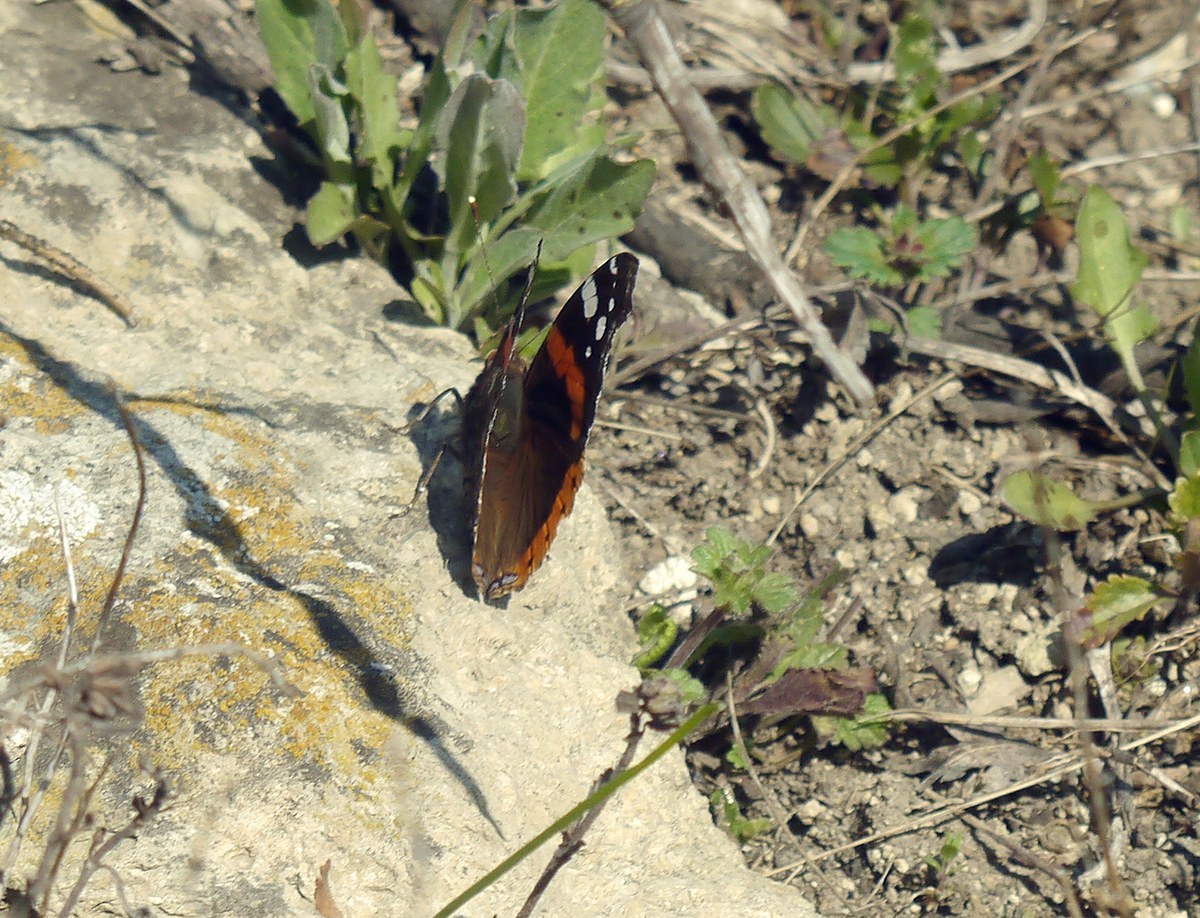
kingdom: Animalia
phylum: Arthropoda
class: Insecta
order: Lepidoptera
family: Nymphalidae
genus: Vanessa
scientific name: Vanessa atalanta
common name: Red admiral
